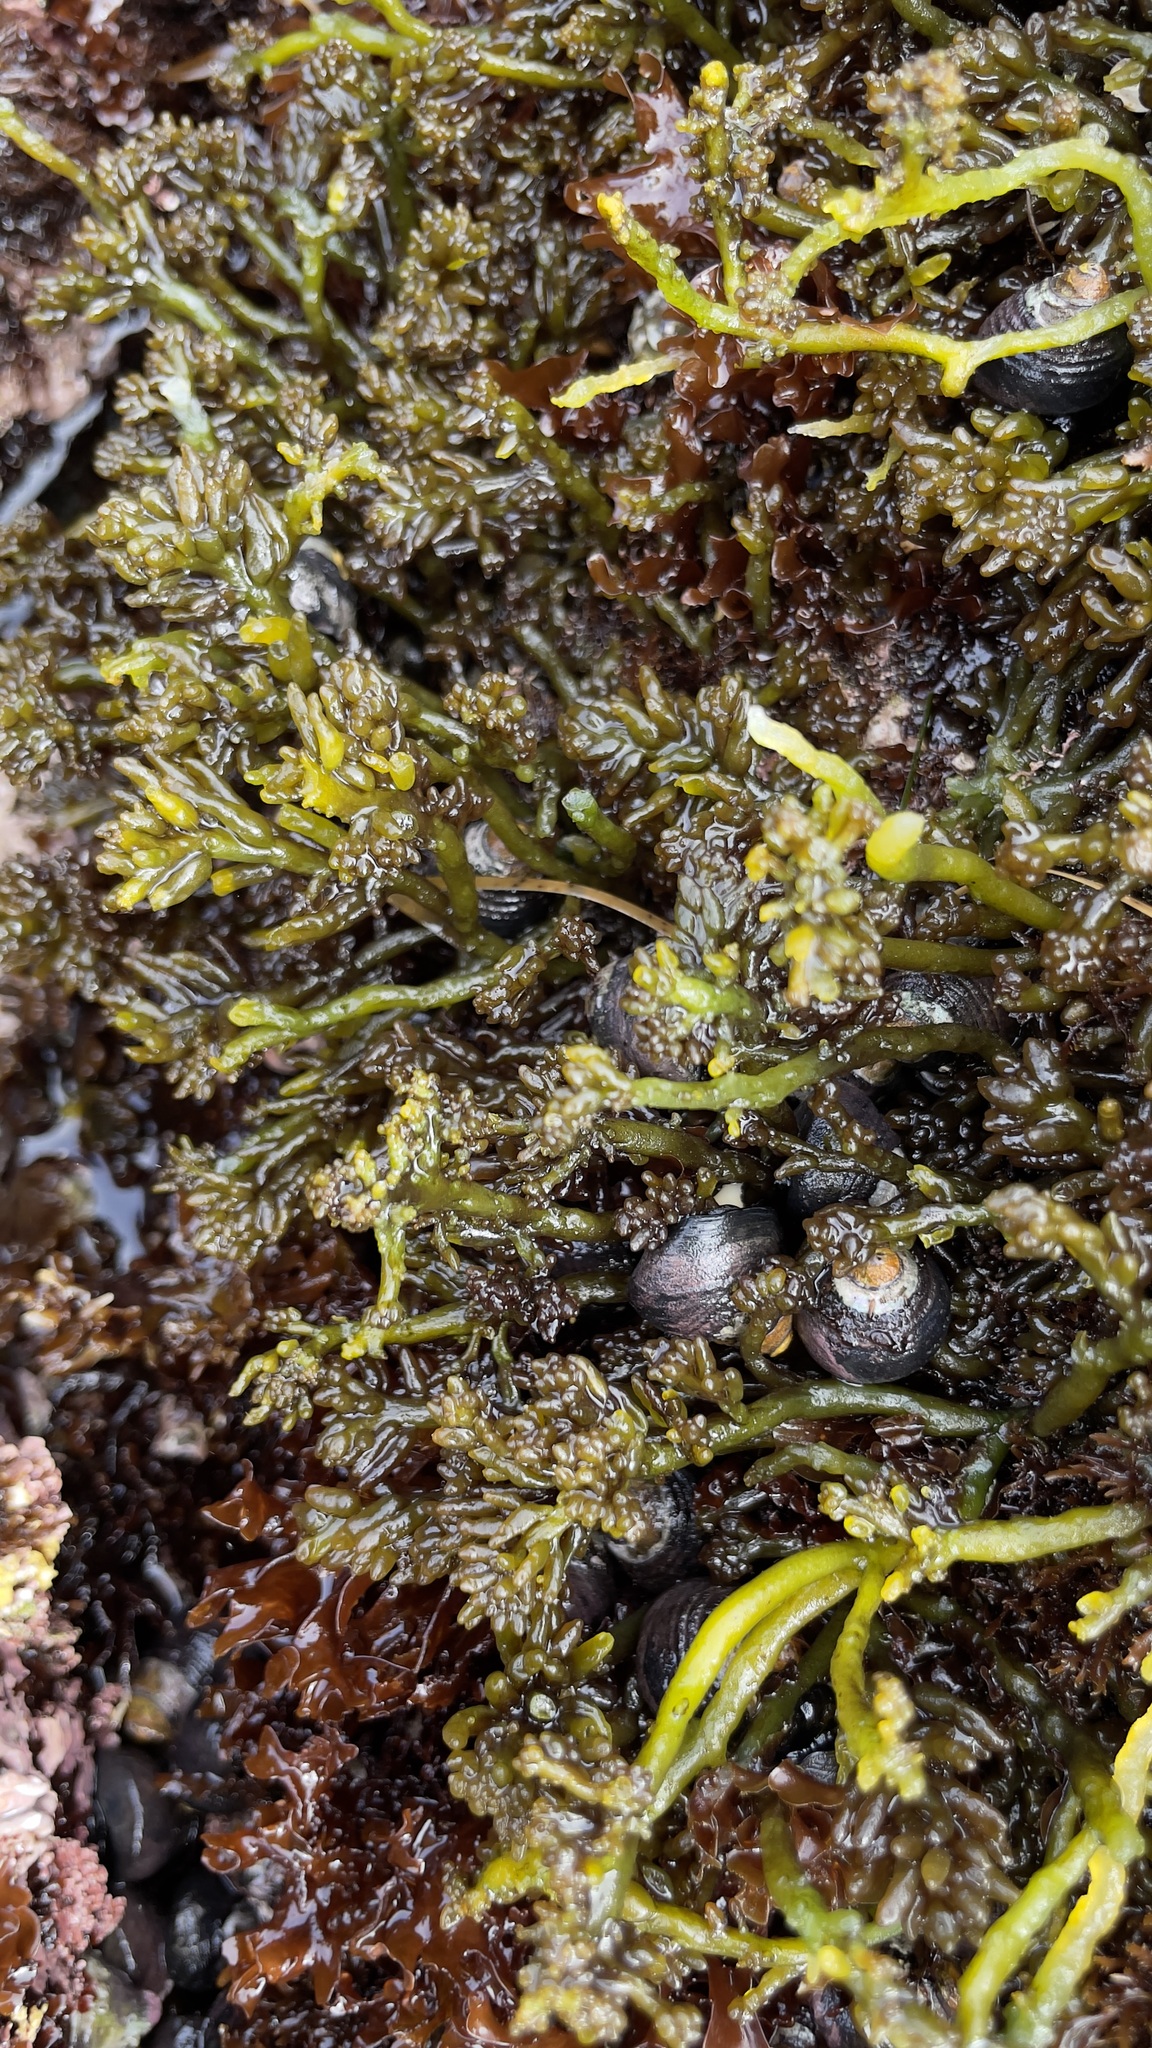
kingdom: Plantae
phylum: Rhodophyta
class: Florideophyceae
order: Rhodymeniales
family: Champiaceae
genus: Neogastroclonium
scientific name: Neogastroclonium subarticulatum
